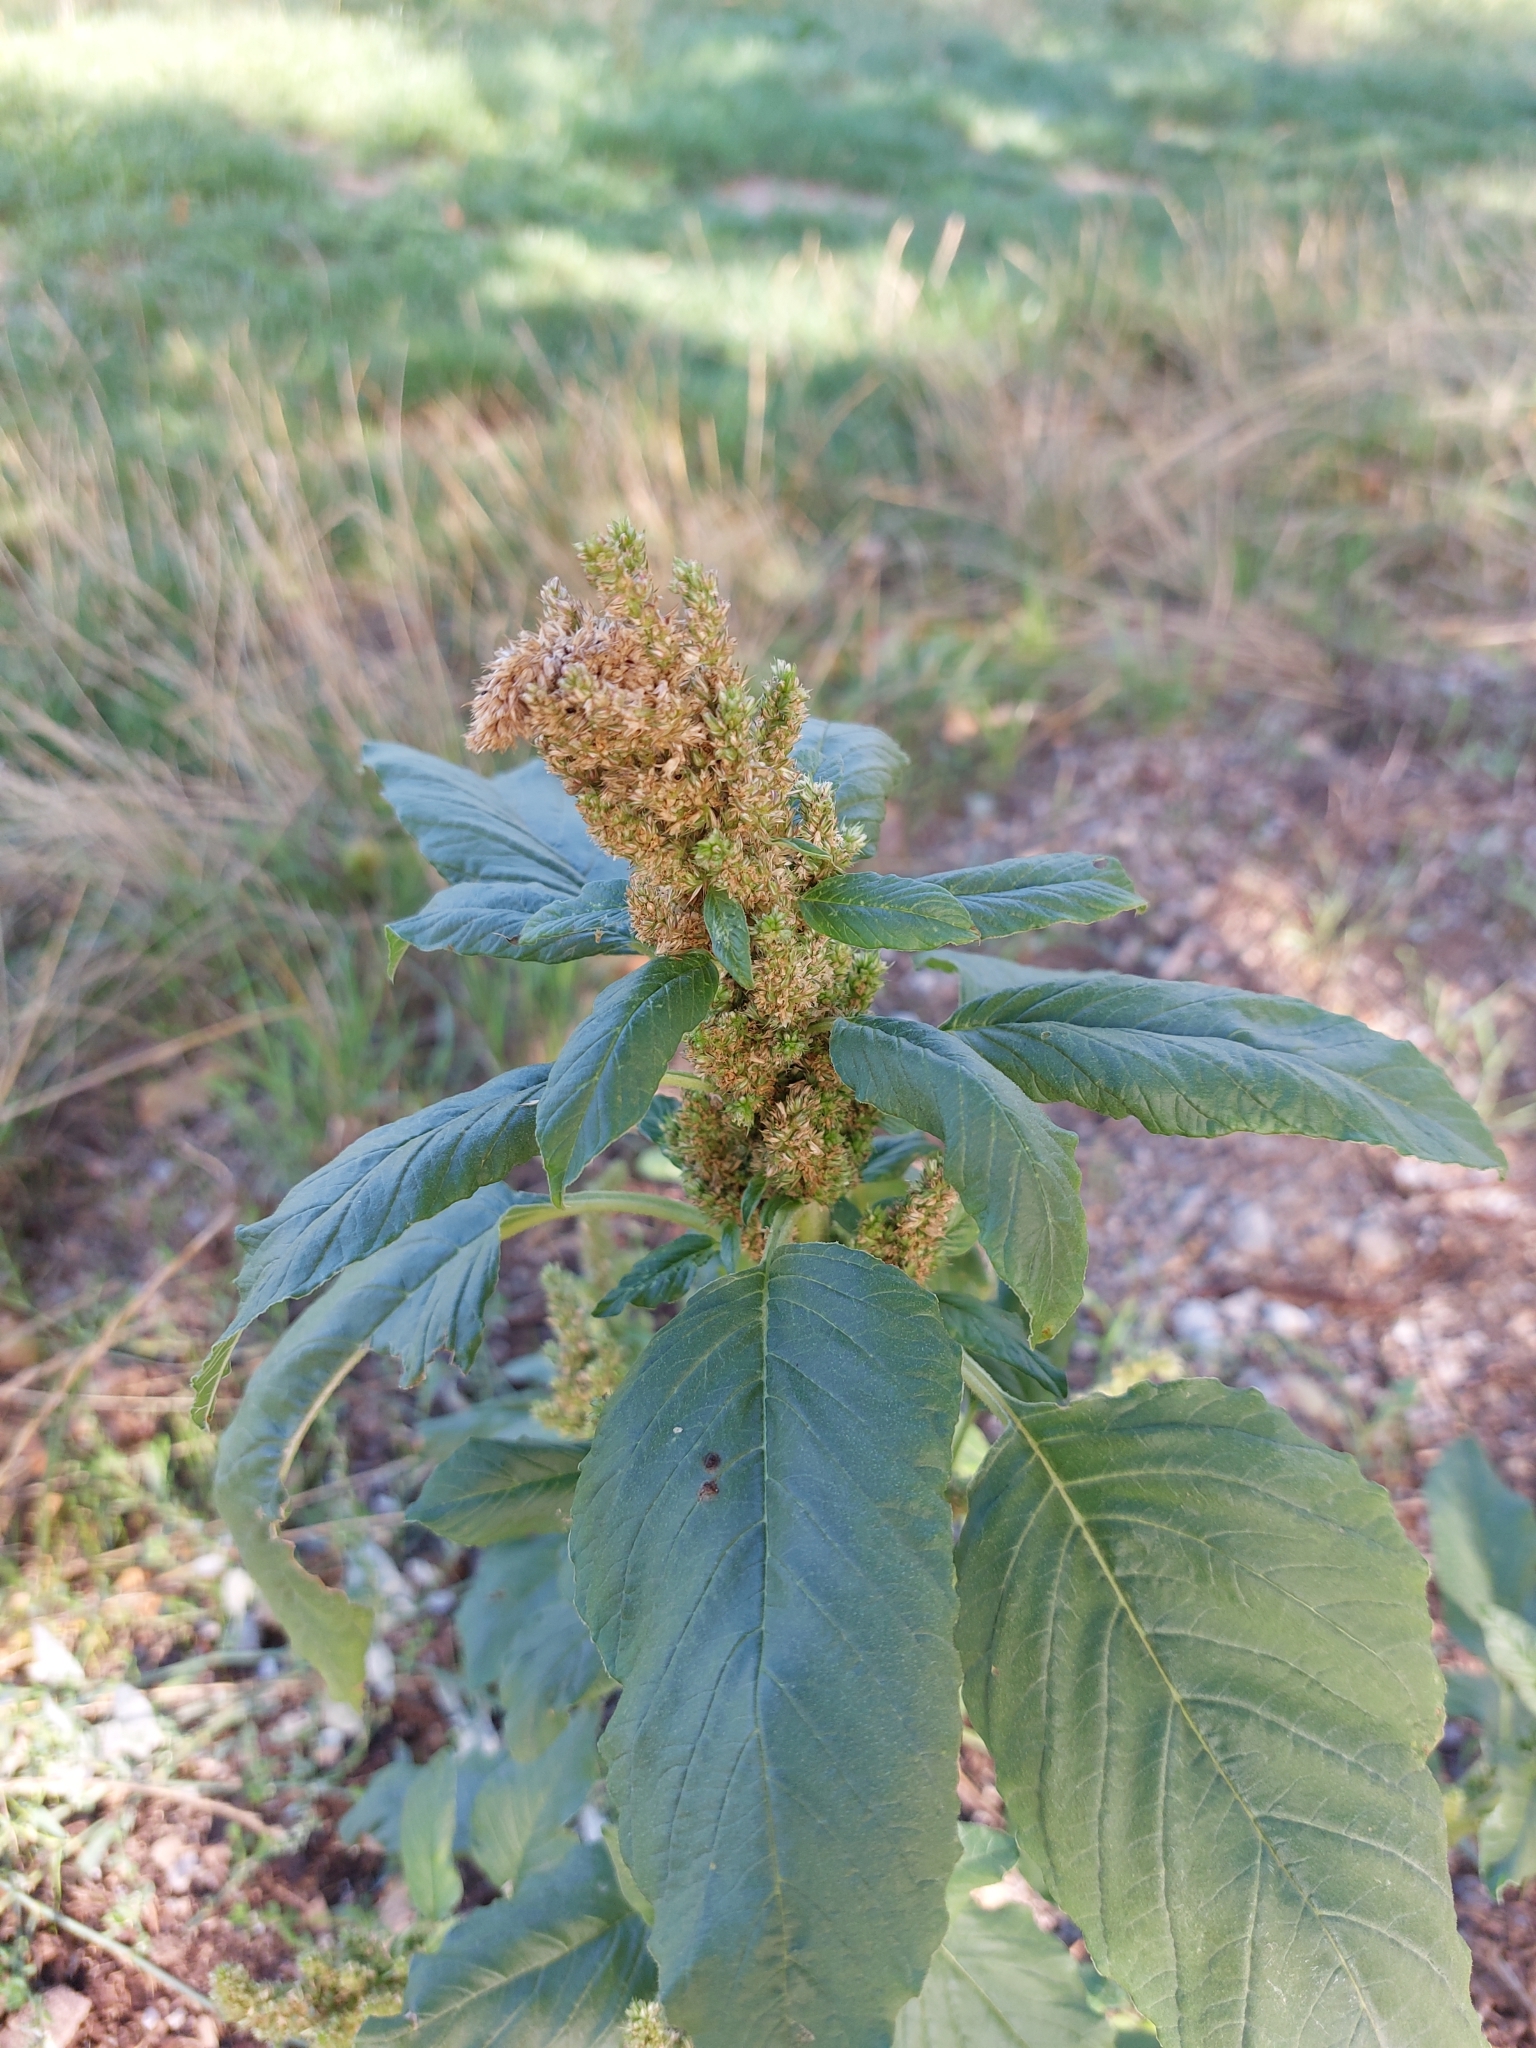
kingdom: Plantae
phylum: Tracheophyta
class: Magnoliopsida
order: Caryophyllales
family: Amaranthaceae
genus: Amaranthus
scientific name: Amaranthus retroflexus
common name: Redroot amaranth
